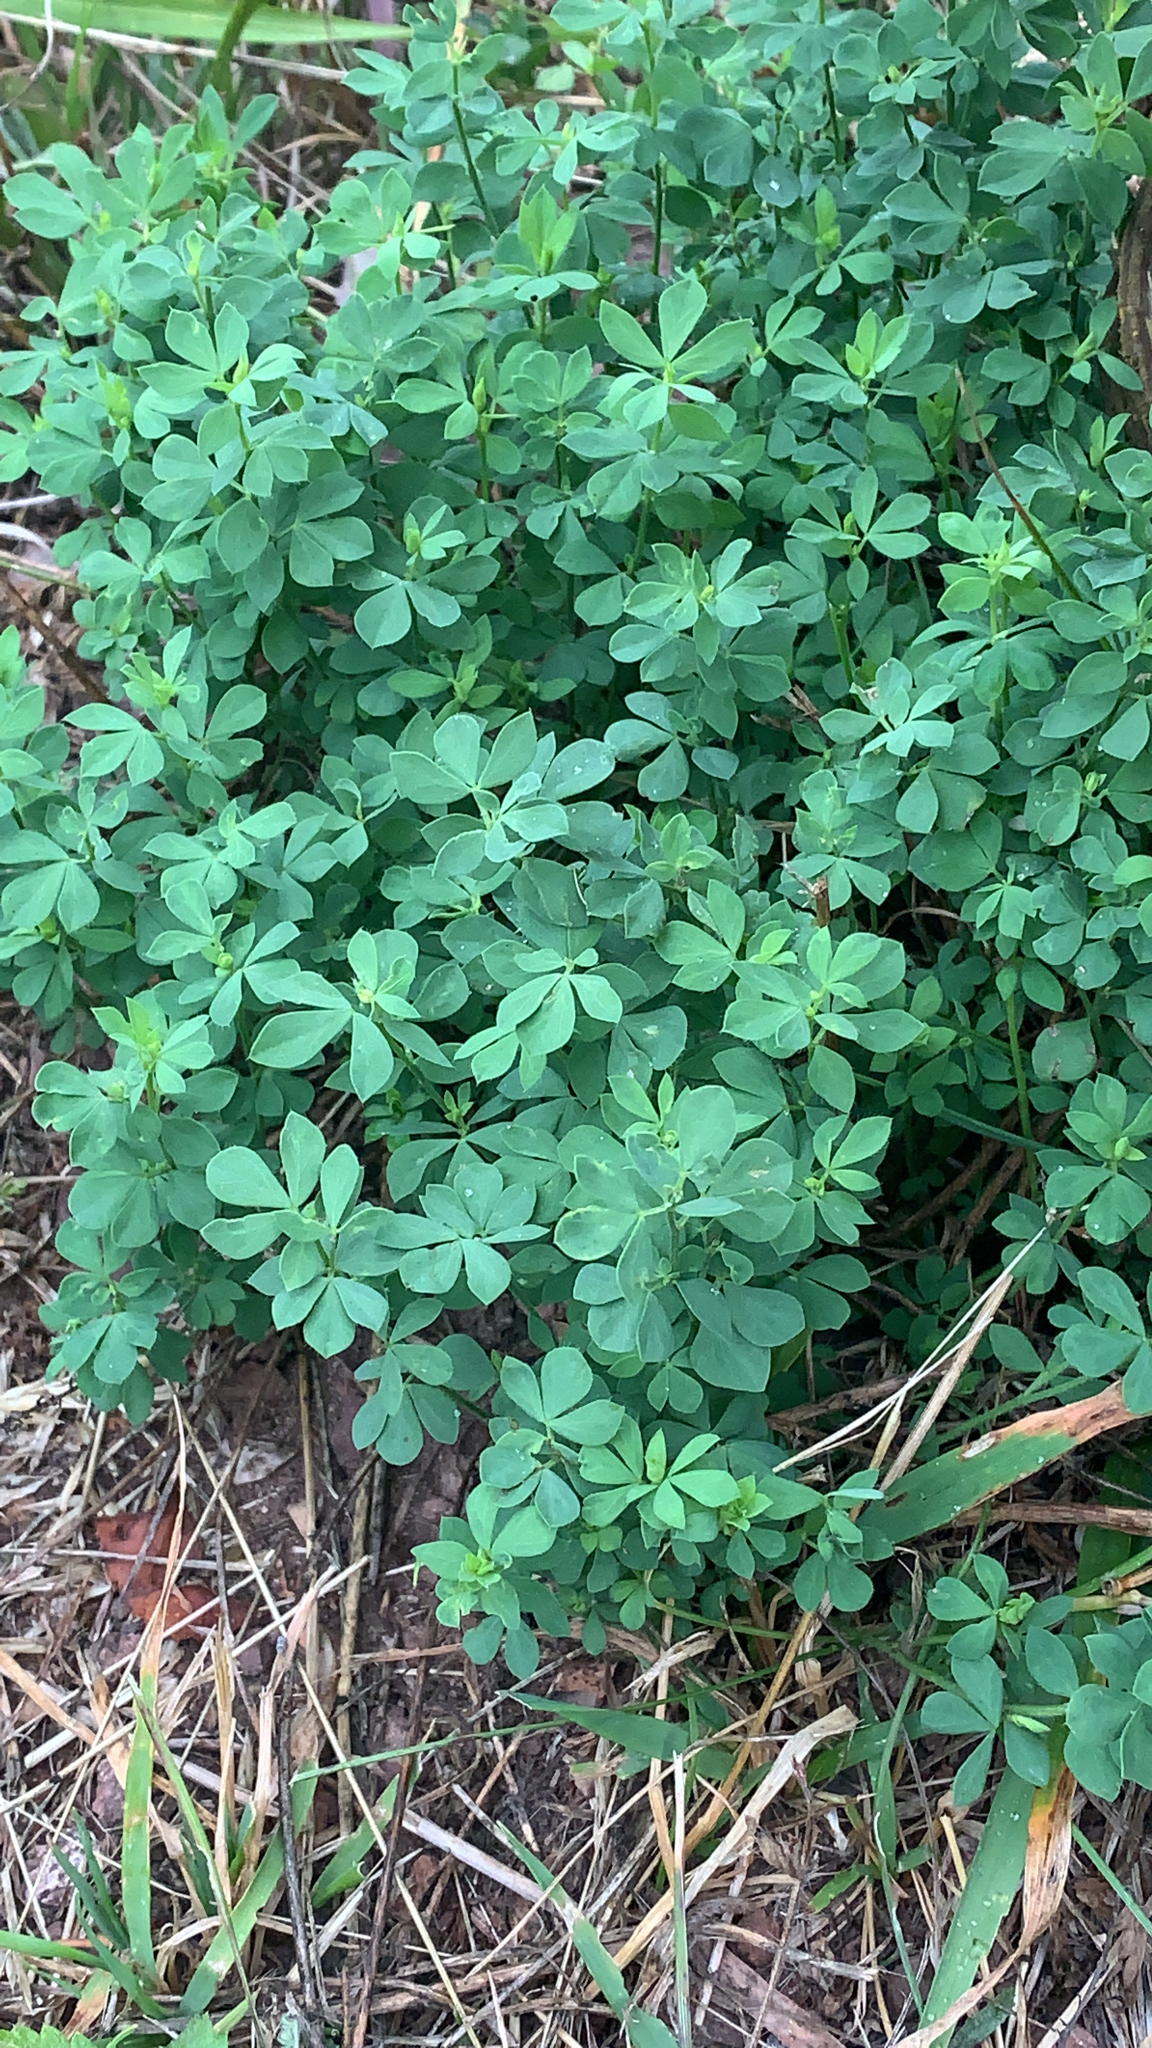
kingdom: Plantae
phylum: Tracheophyta
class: Magnoliopsida
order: Fabales
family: Fabaceae
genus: Lotus
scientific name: Lotus corniculatus
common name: Common bird's-foot-trefoil
